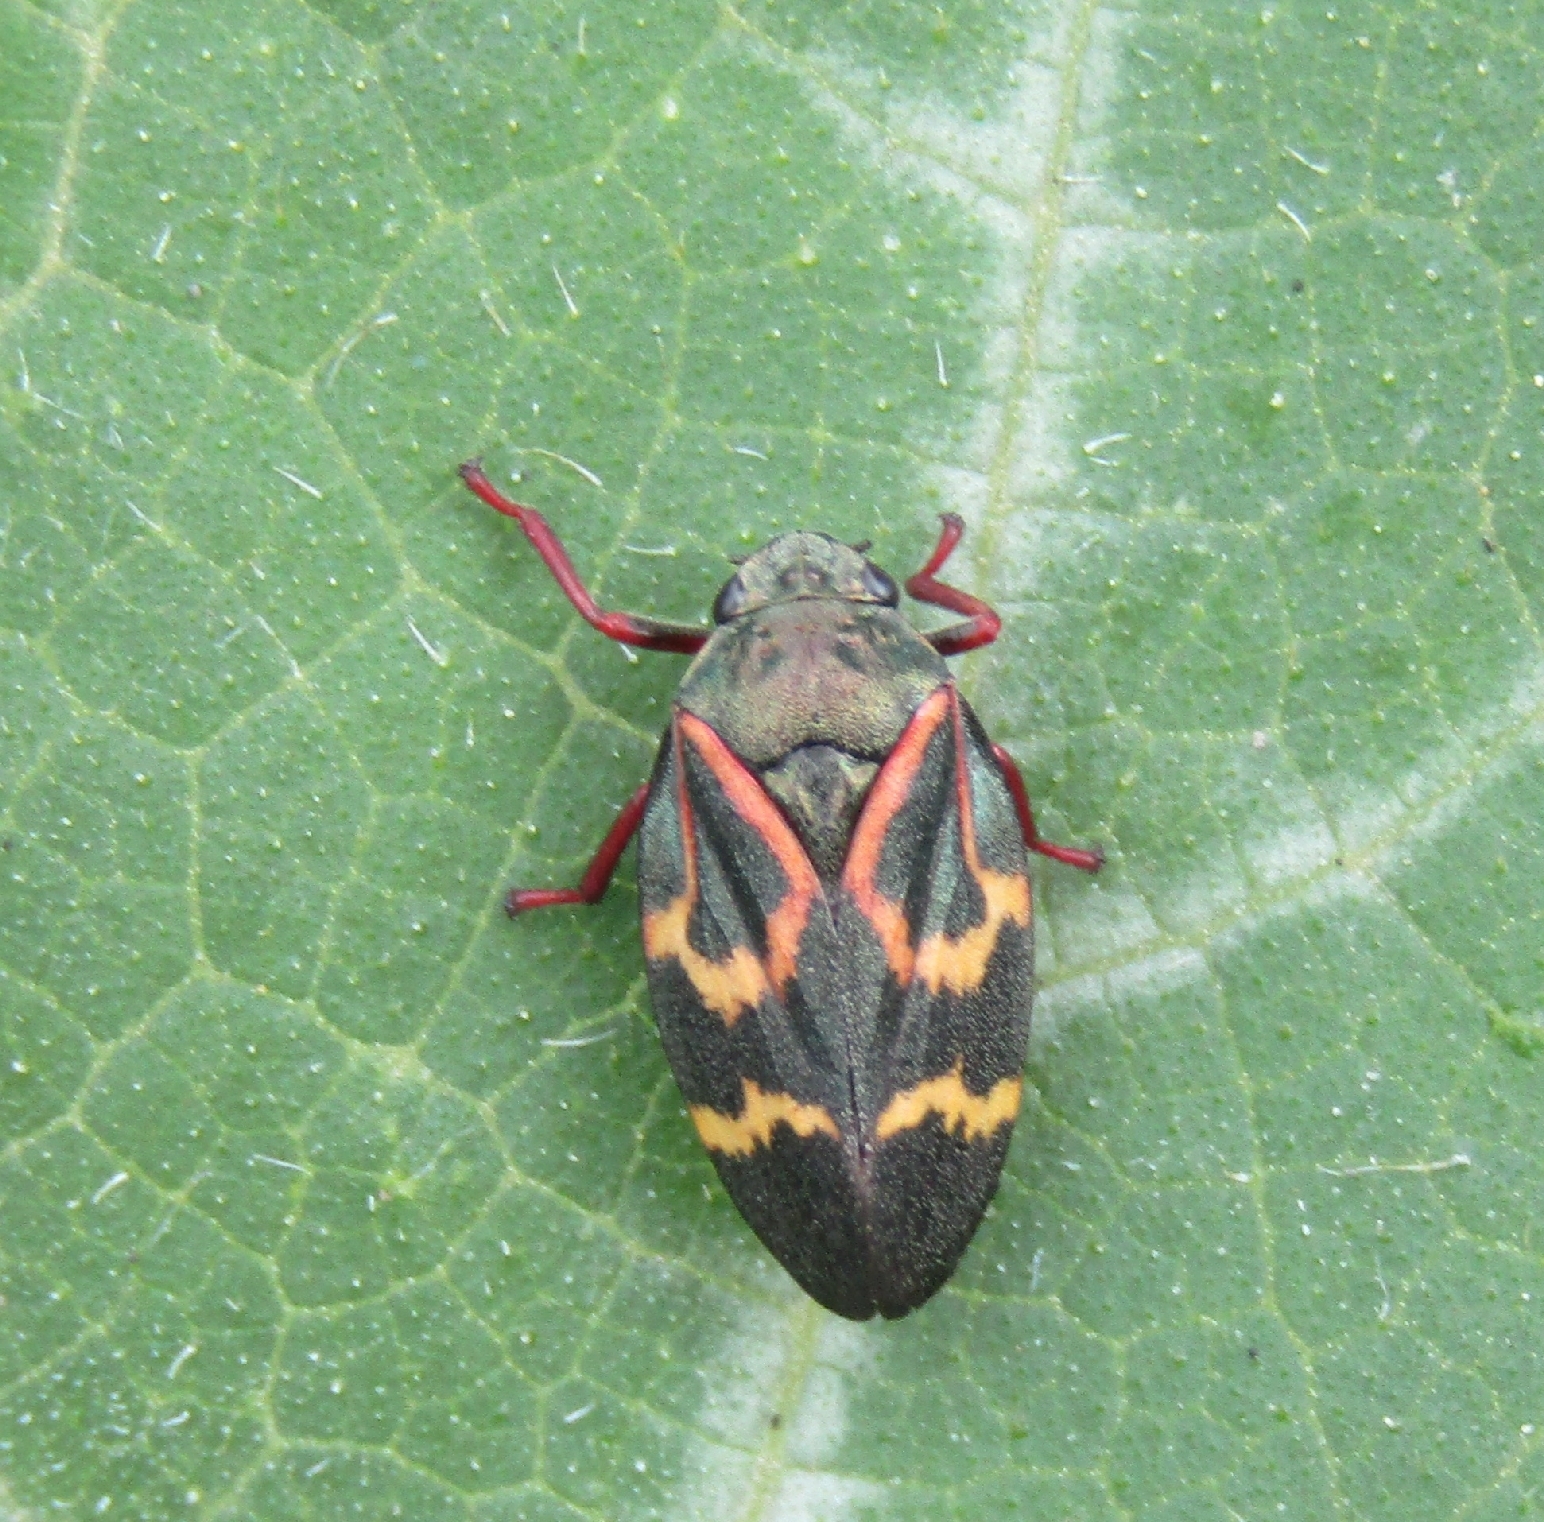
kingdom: Animalia
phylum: Arthropoda
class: Insecta
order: Hemiptera
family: Cercopidae
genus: Deois
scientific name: Deois flexuosa
